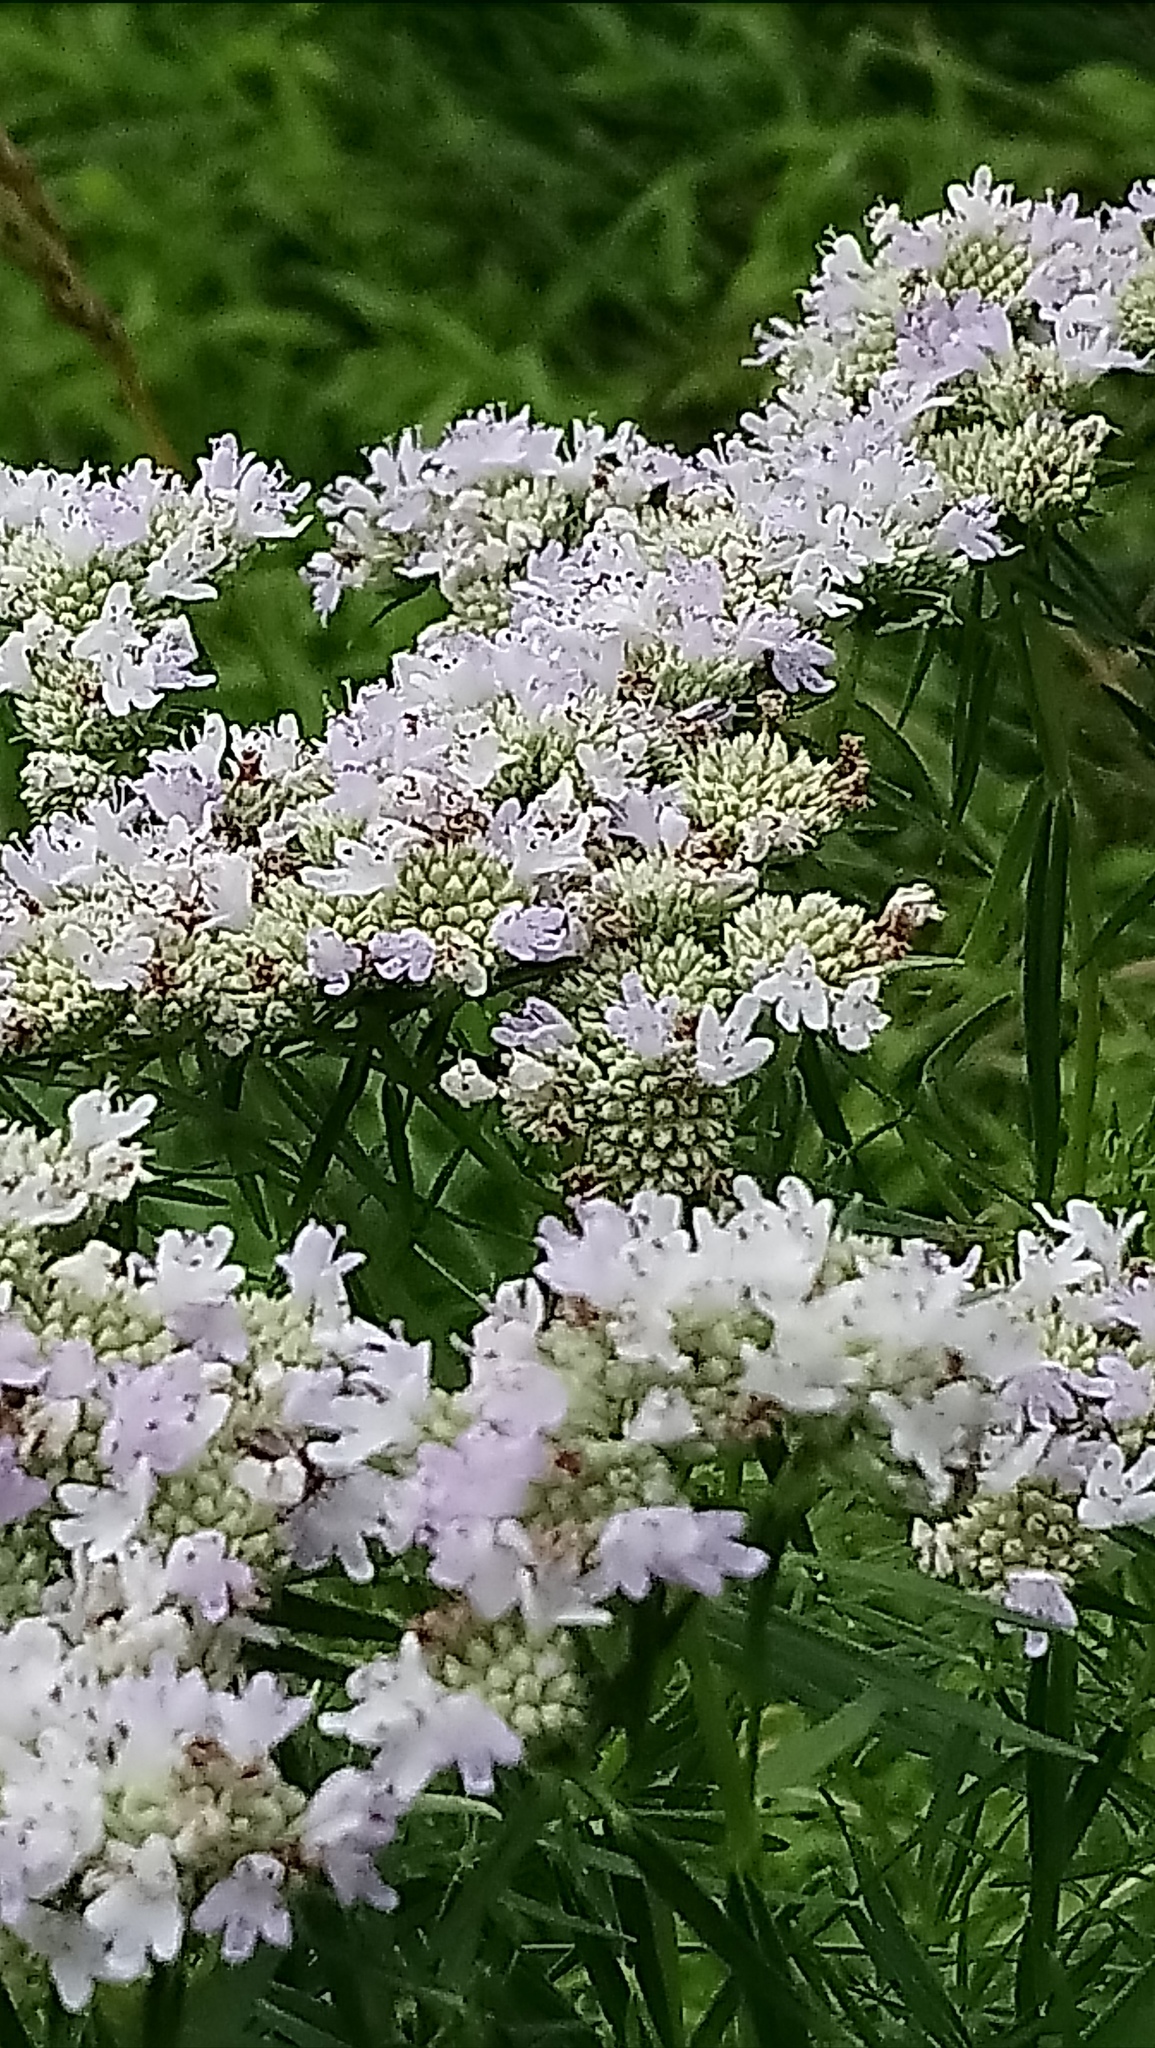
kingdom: Plantae
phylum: Tracheophyta
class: Magnoliopsida
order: Lamiales
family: Lamiaceae
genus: Pycnanthemum
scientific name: Pycnanthemum tenuifolium
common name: Narrow-leaf mountain-mint
